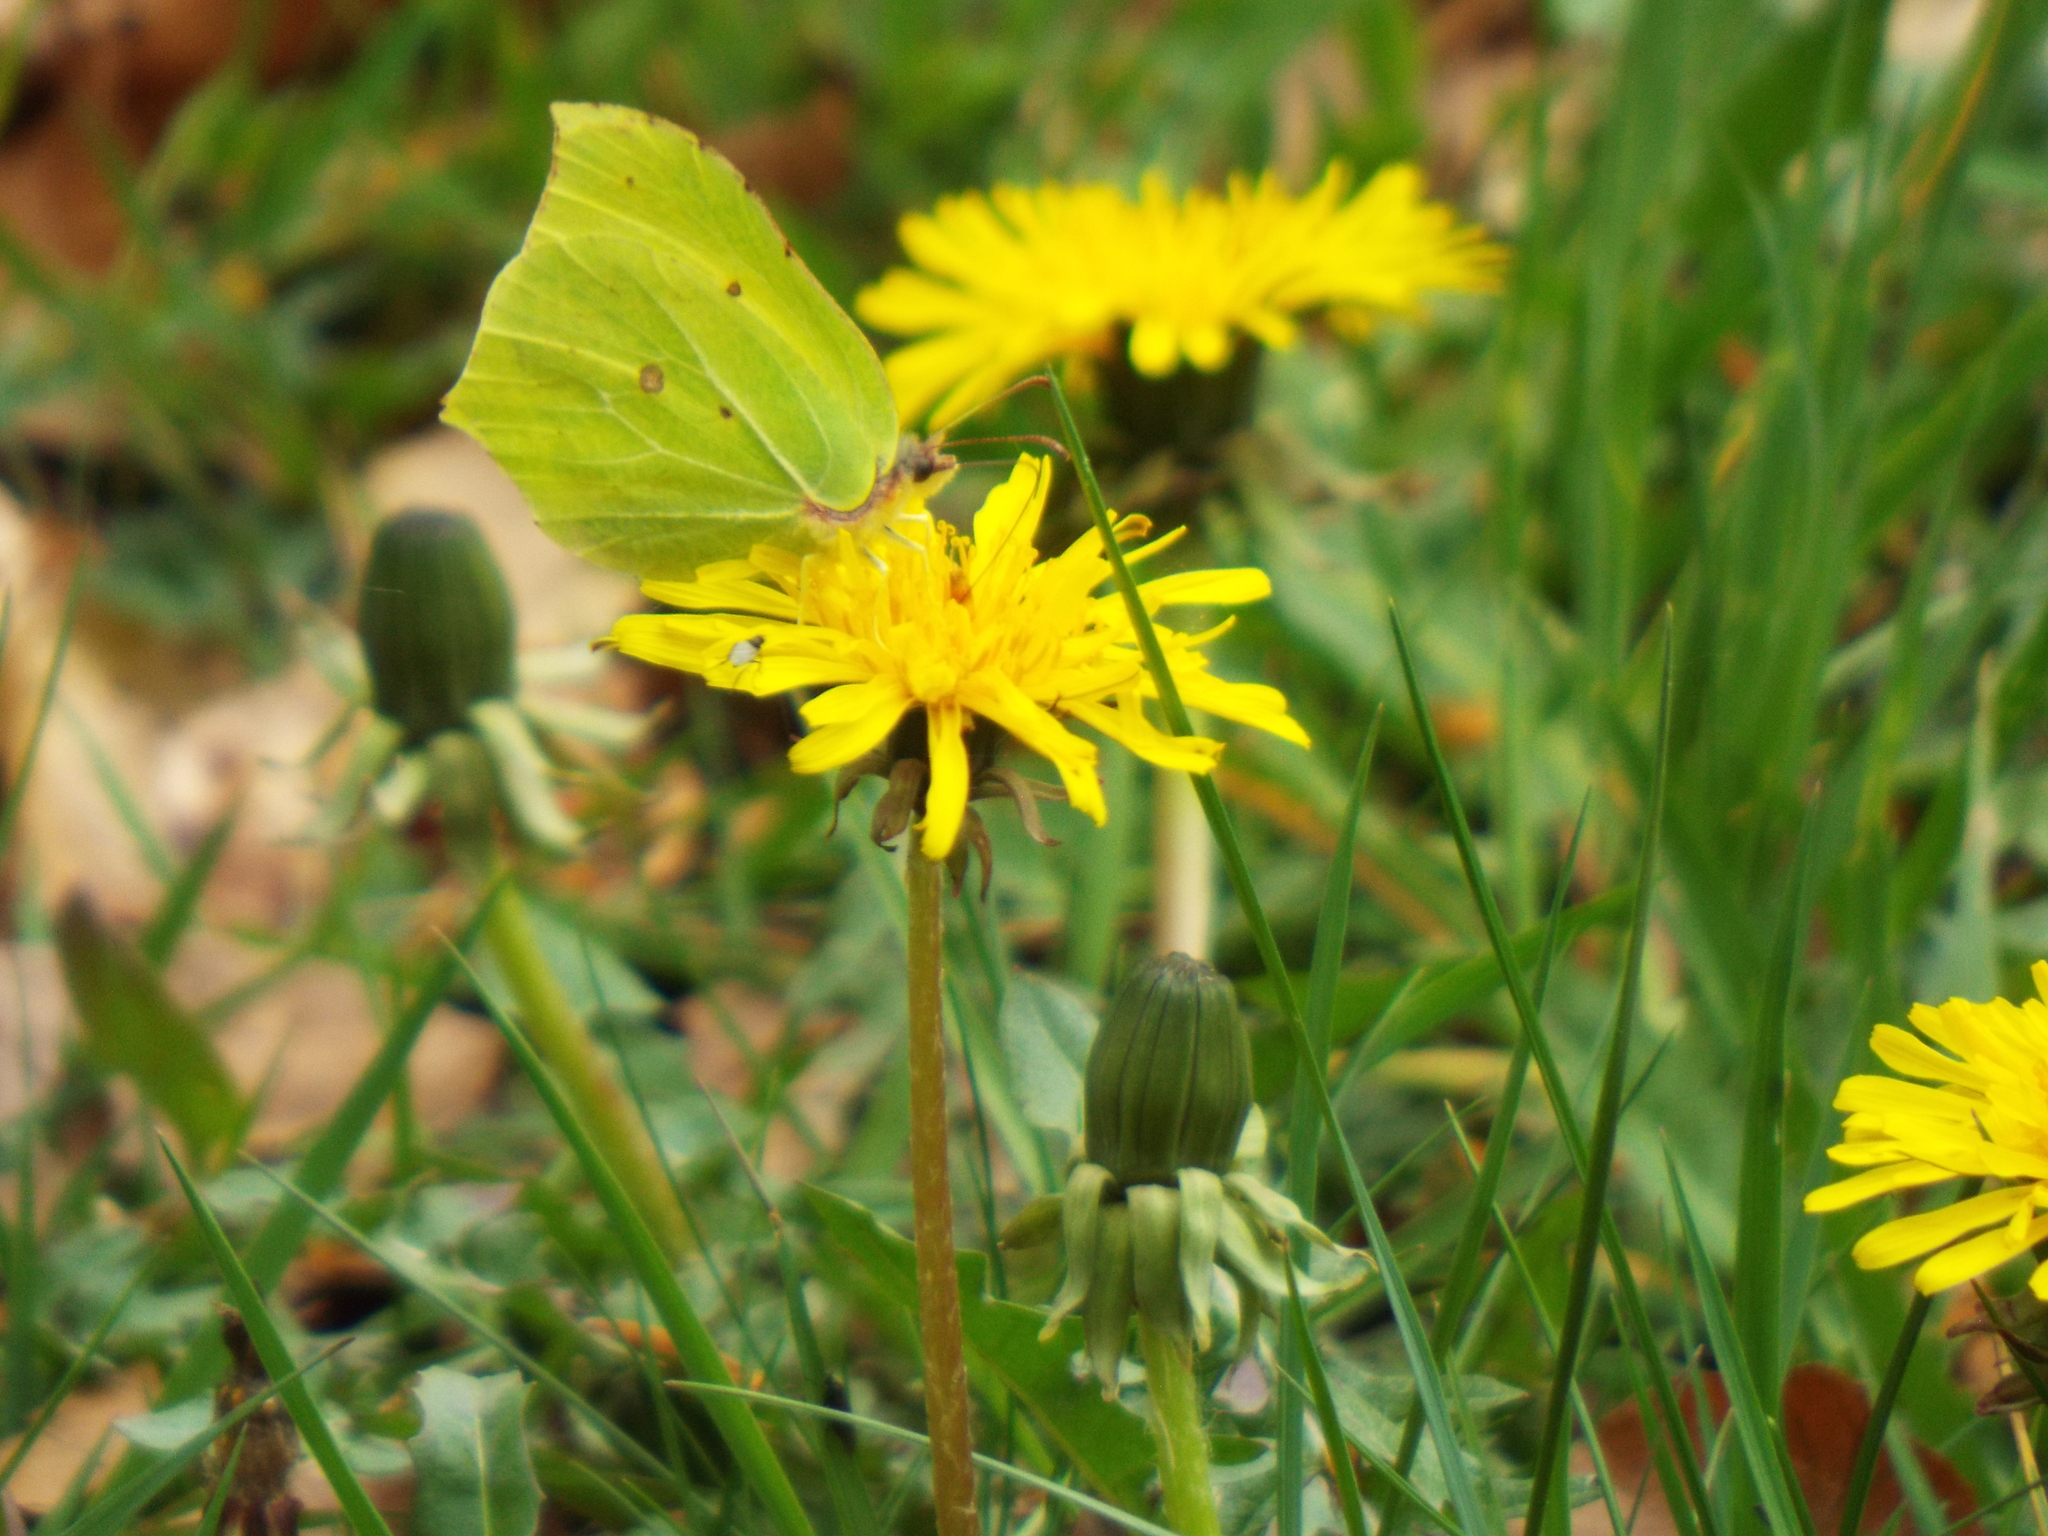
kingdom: Animalia
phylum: Arthropoda
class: Insecta
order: Lepidoptera
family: Pieridae
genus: Gonepteryx
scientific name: Gonepteryx rhamni
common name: Brimstone
